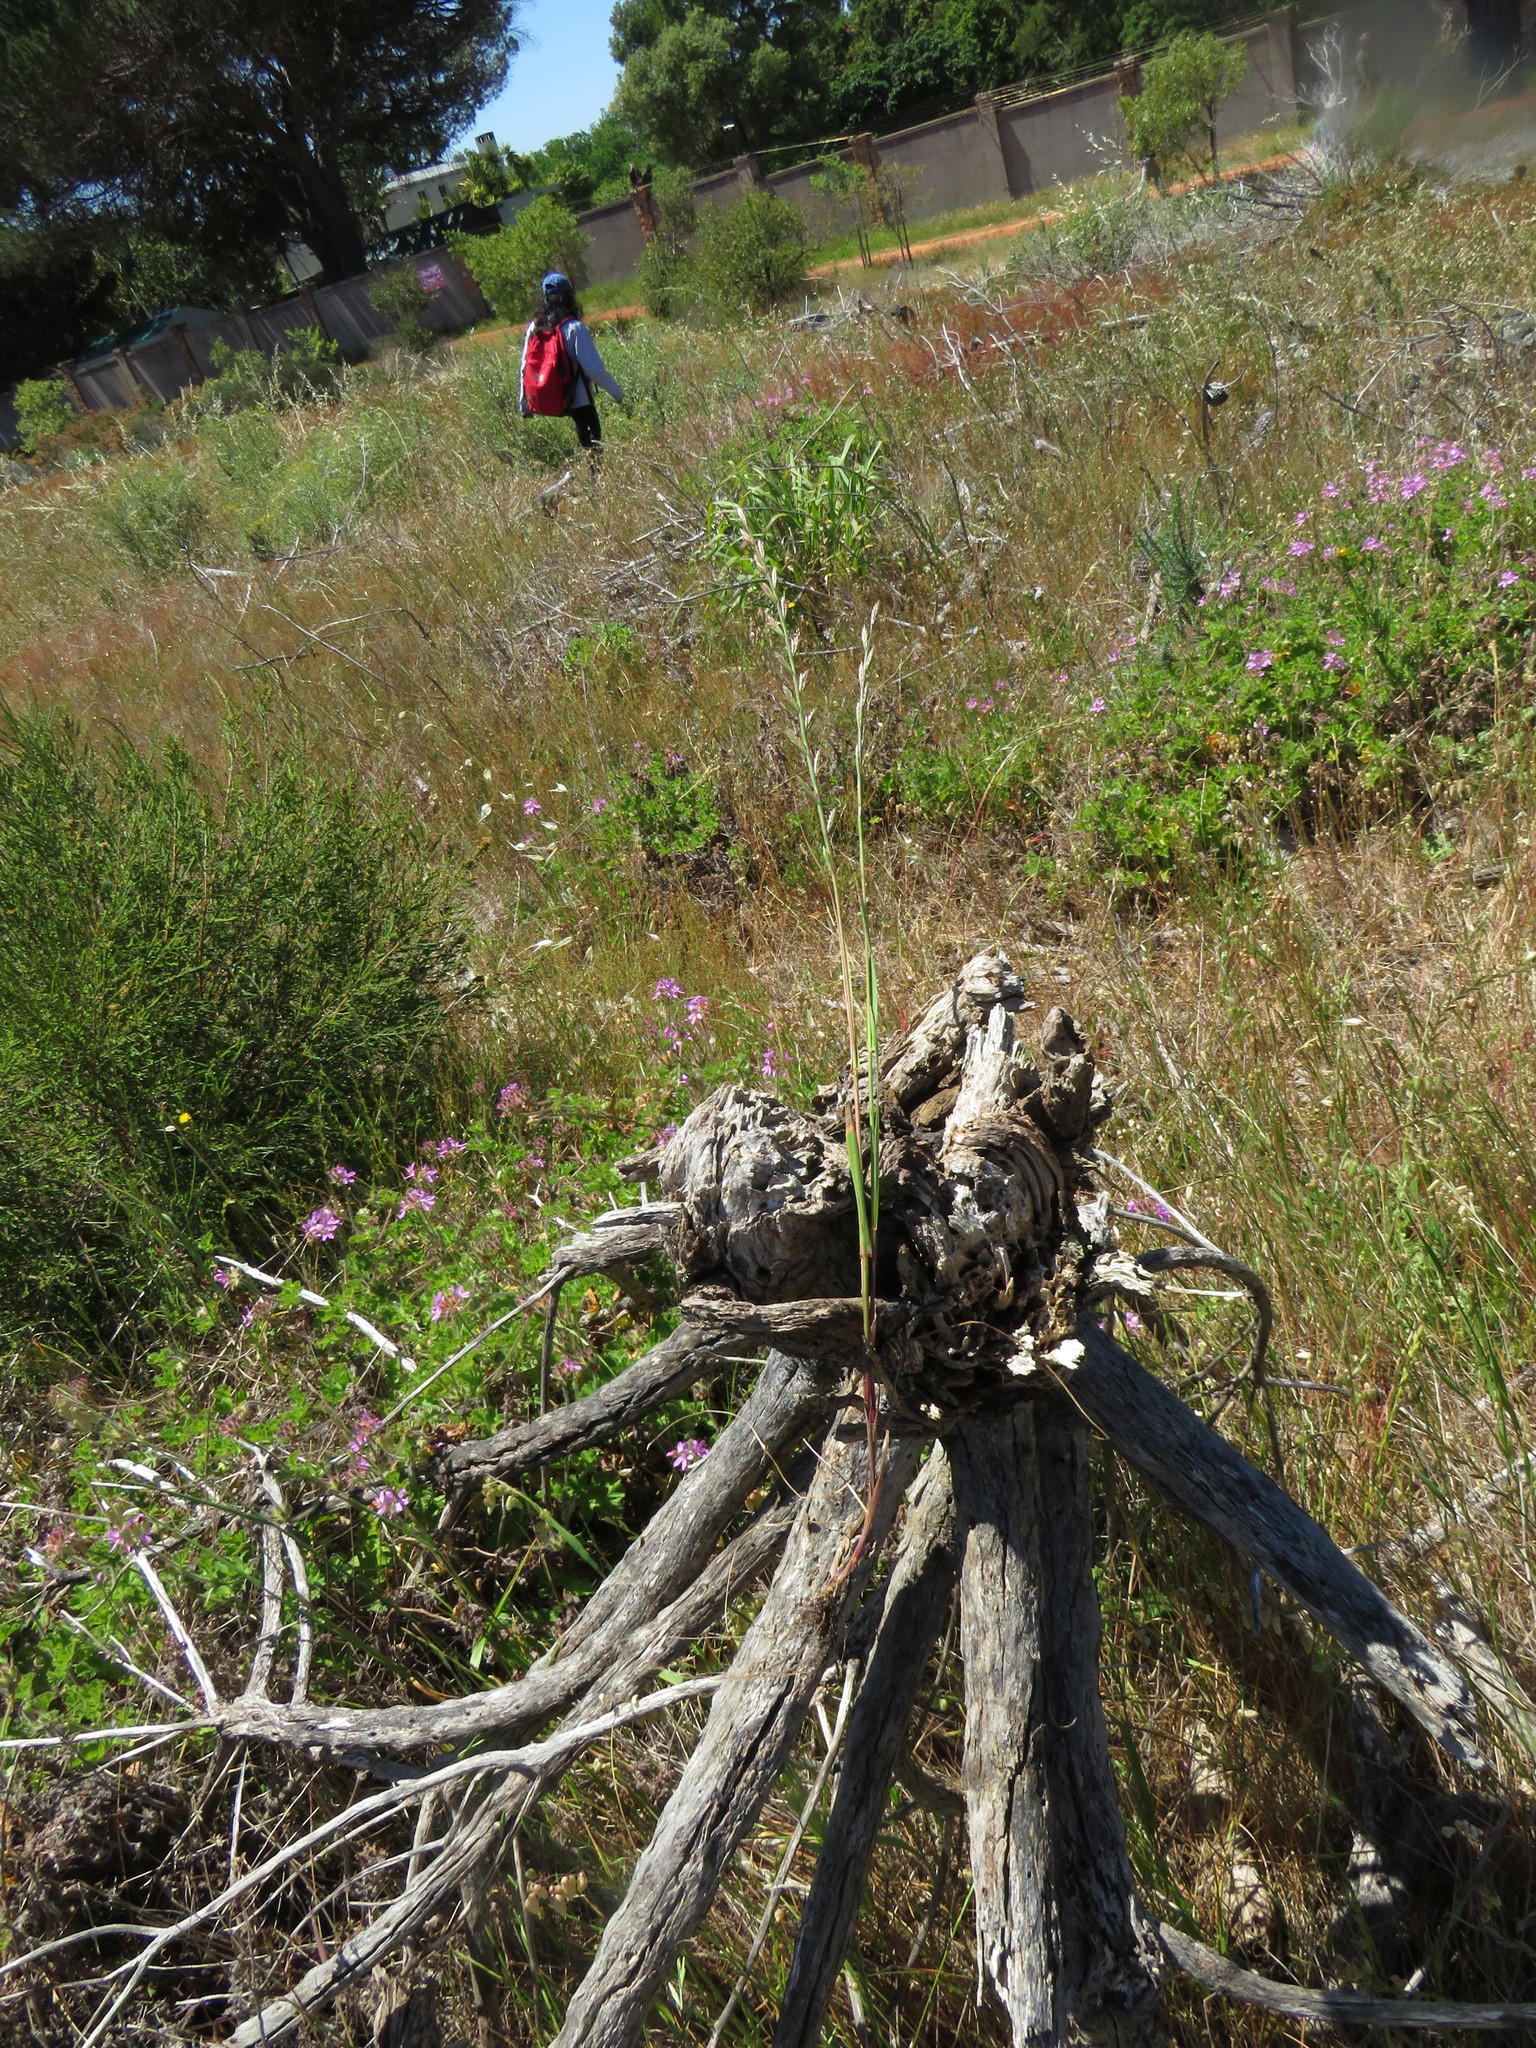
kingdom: Plantae
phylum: Tracheophyta
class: Liliopsida
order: Poales
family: Poaceae
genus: Lolium
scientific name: Lolium perenne
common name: Perennial ryegrass
